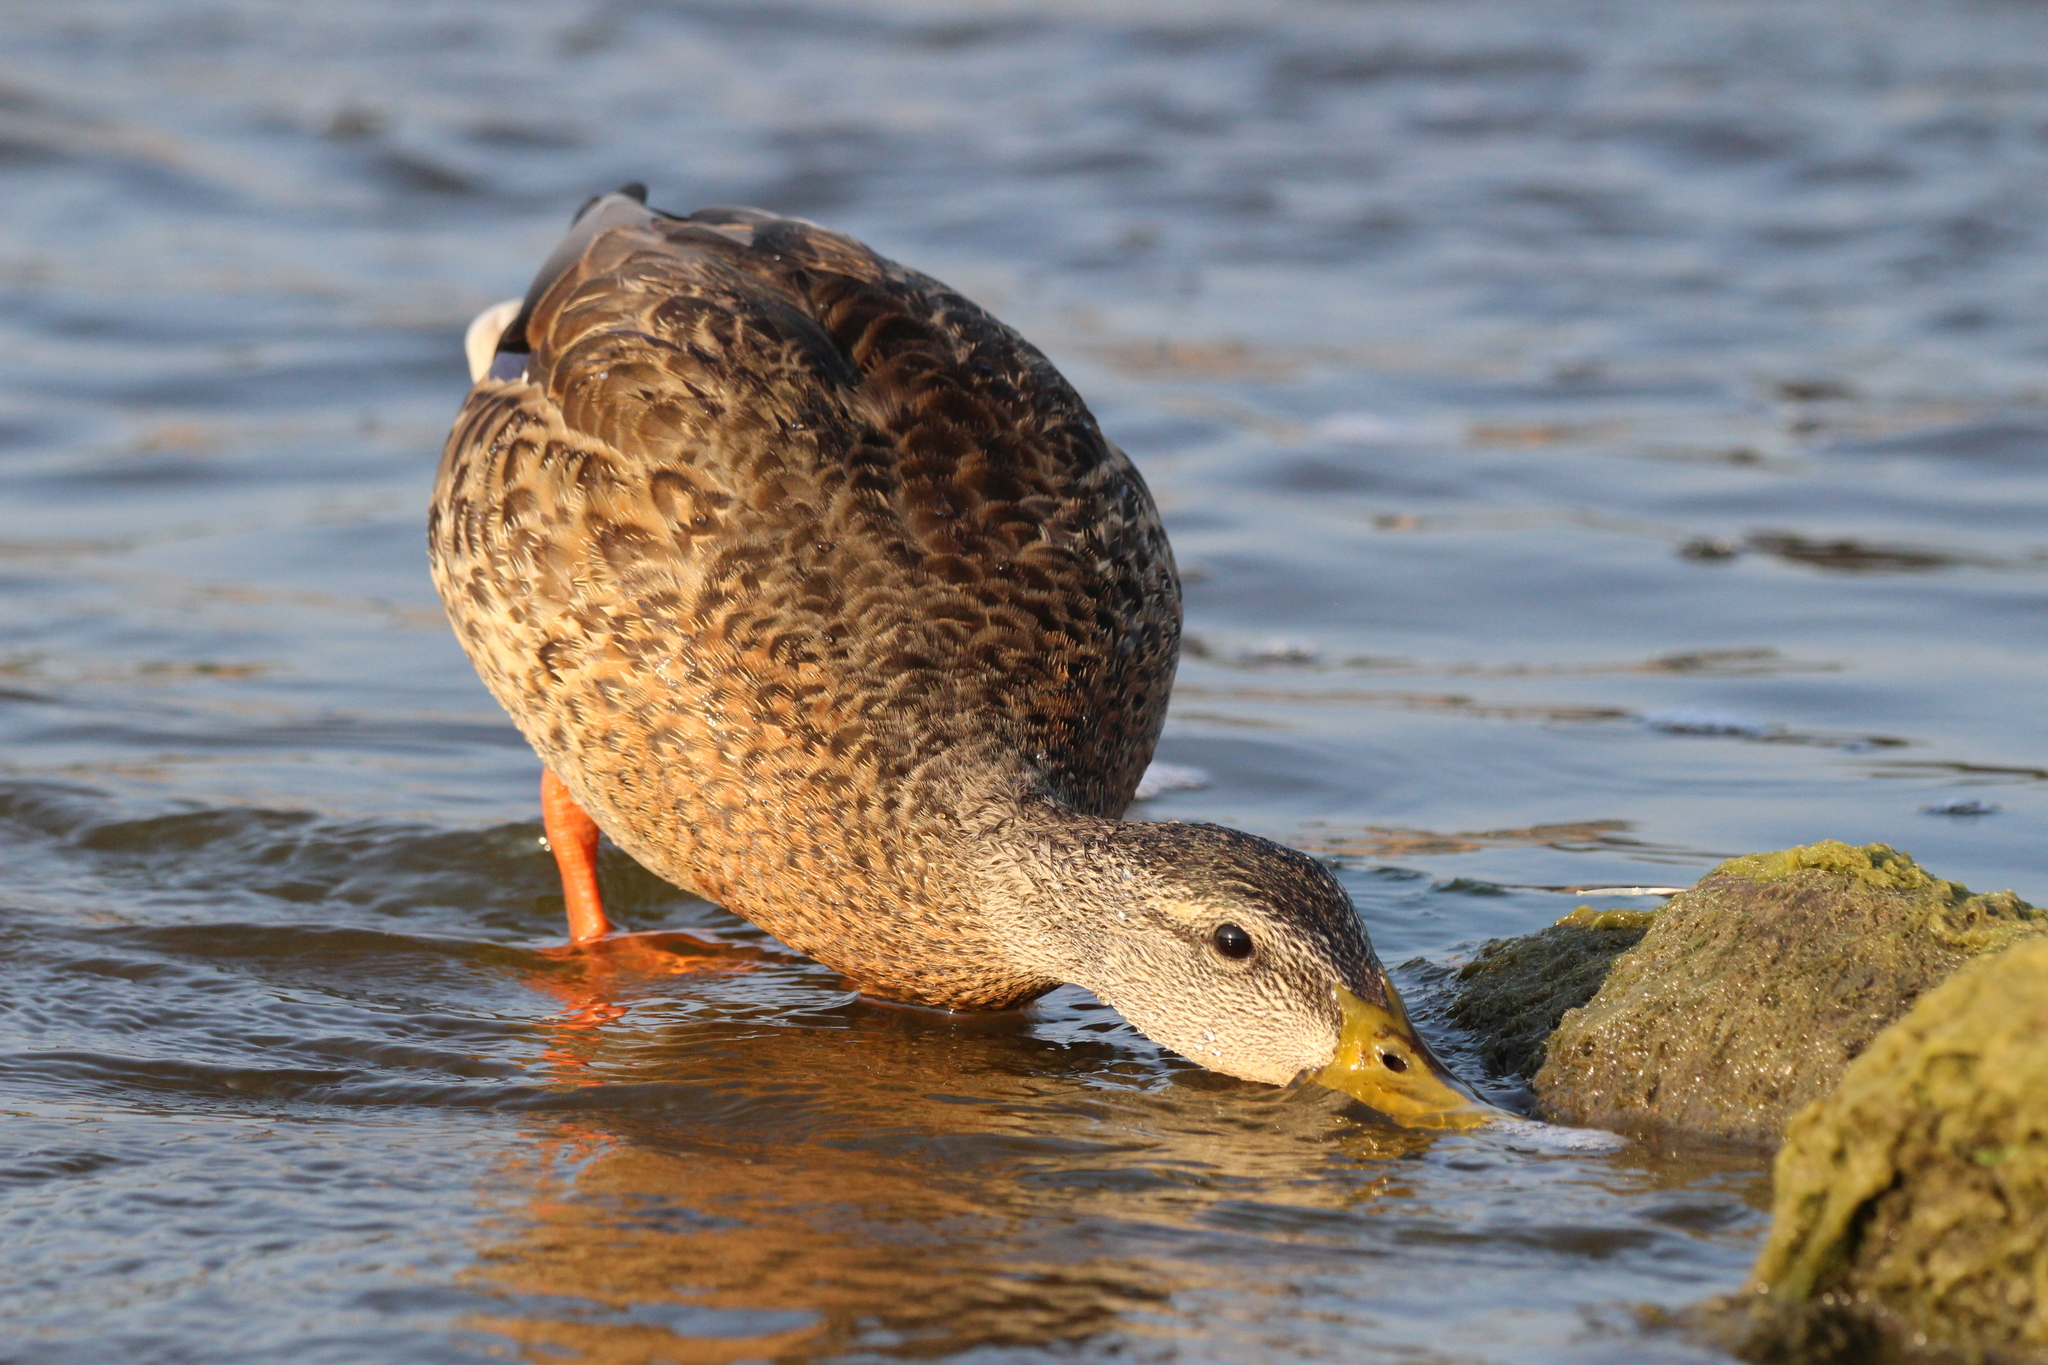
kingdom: Animalia
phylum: Chordata
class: Aves
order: Anseriformes
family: Anatidae
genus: Anas
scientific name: Anas platyrhynchos
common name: Mallard
